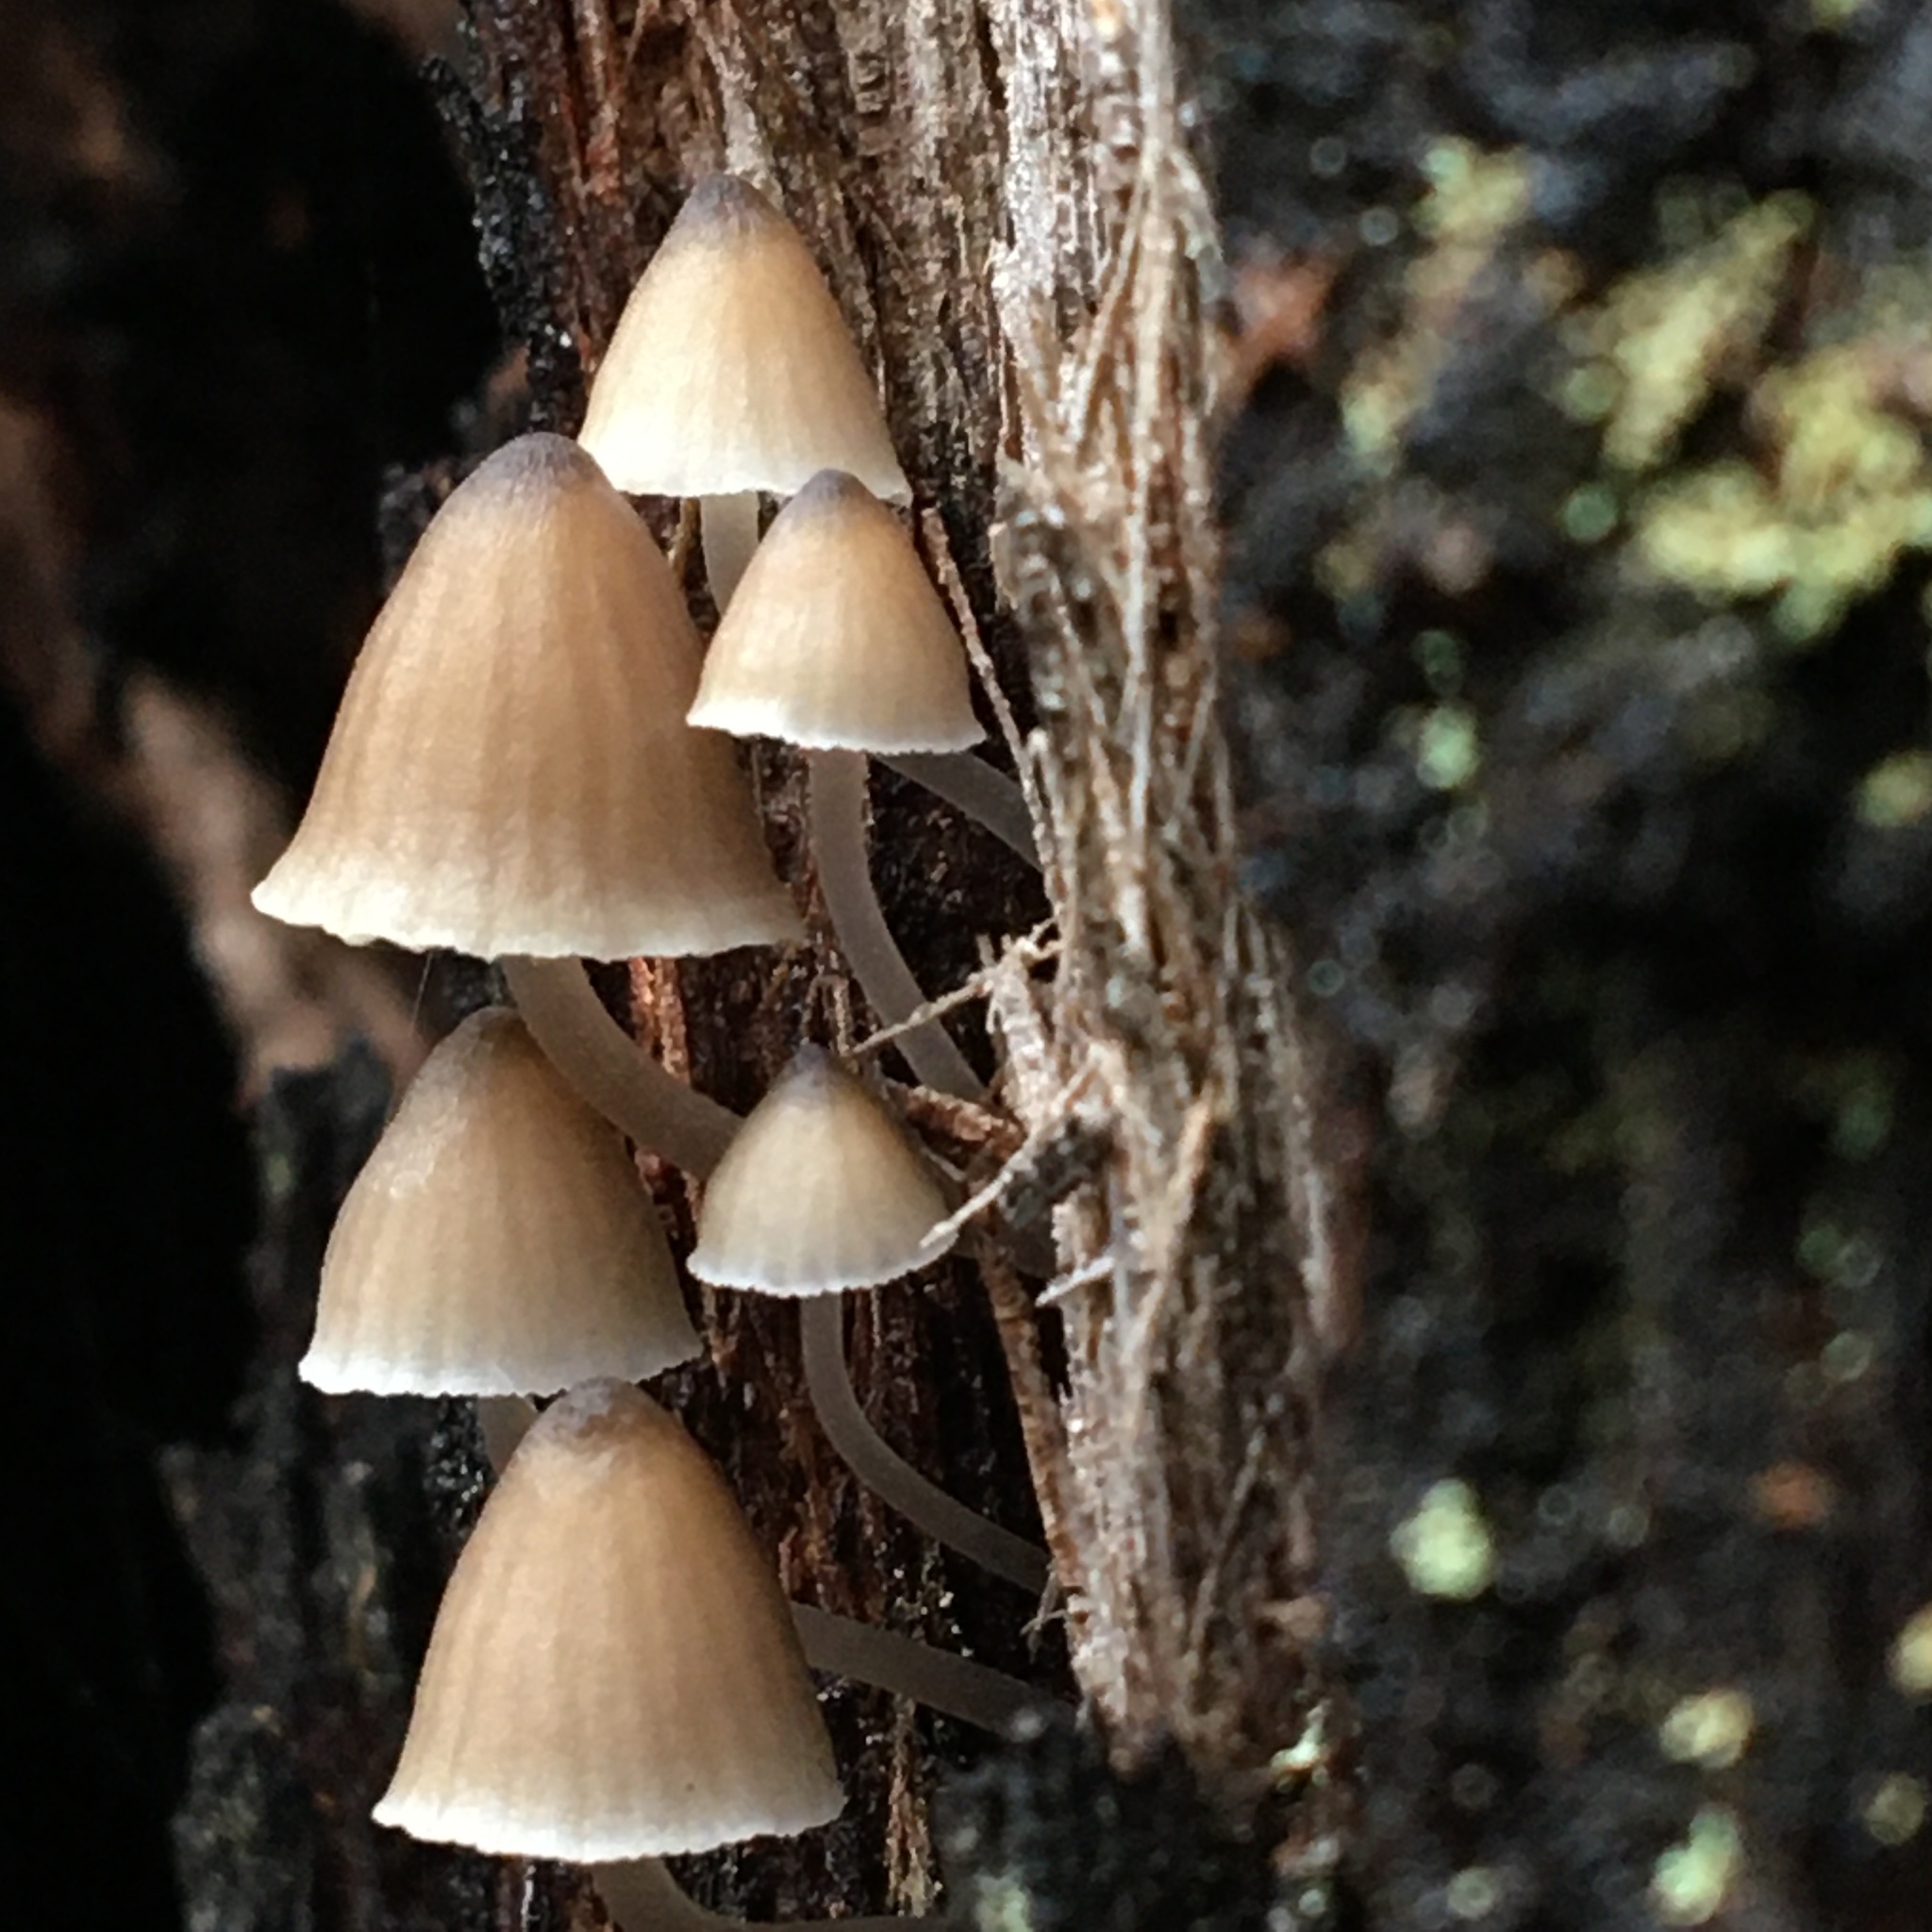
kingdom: Fungi
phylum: Basidiomycota
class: Agaricomycetes
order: Agaricales
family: Mycenaceae
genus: Mycena
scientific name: Mycena subgalericulata
